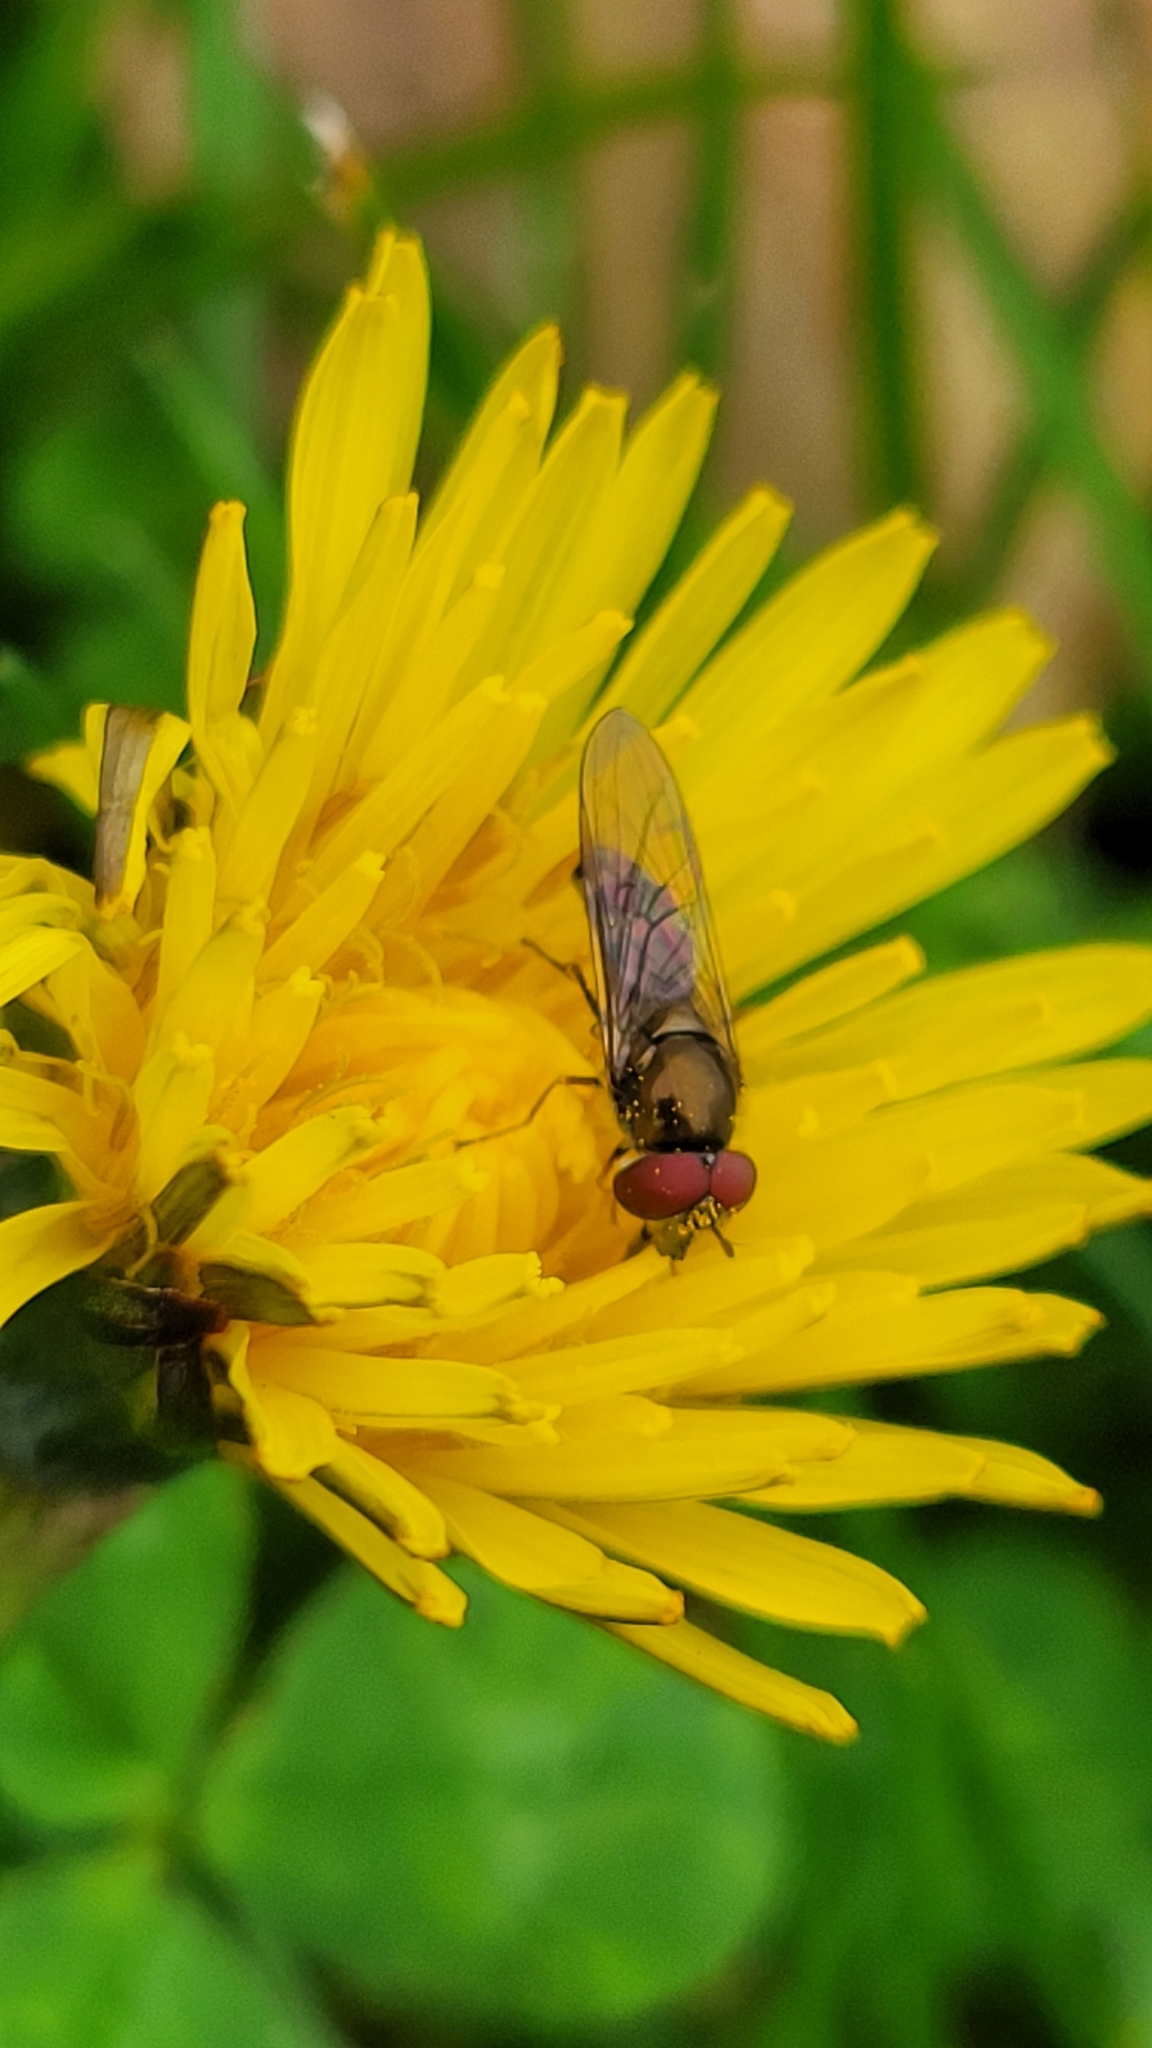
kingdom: Animalia
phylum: Arthropoda
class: Insecta
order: Diptera
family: Syrphidae
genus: Platycheirus
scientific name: Platycheirus trichopus
